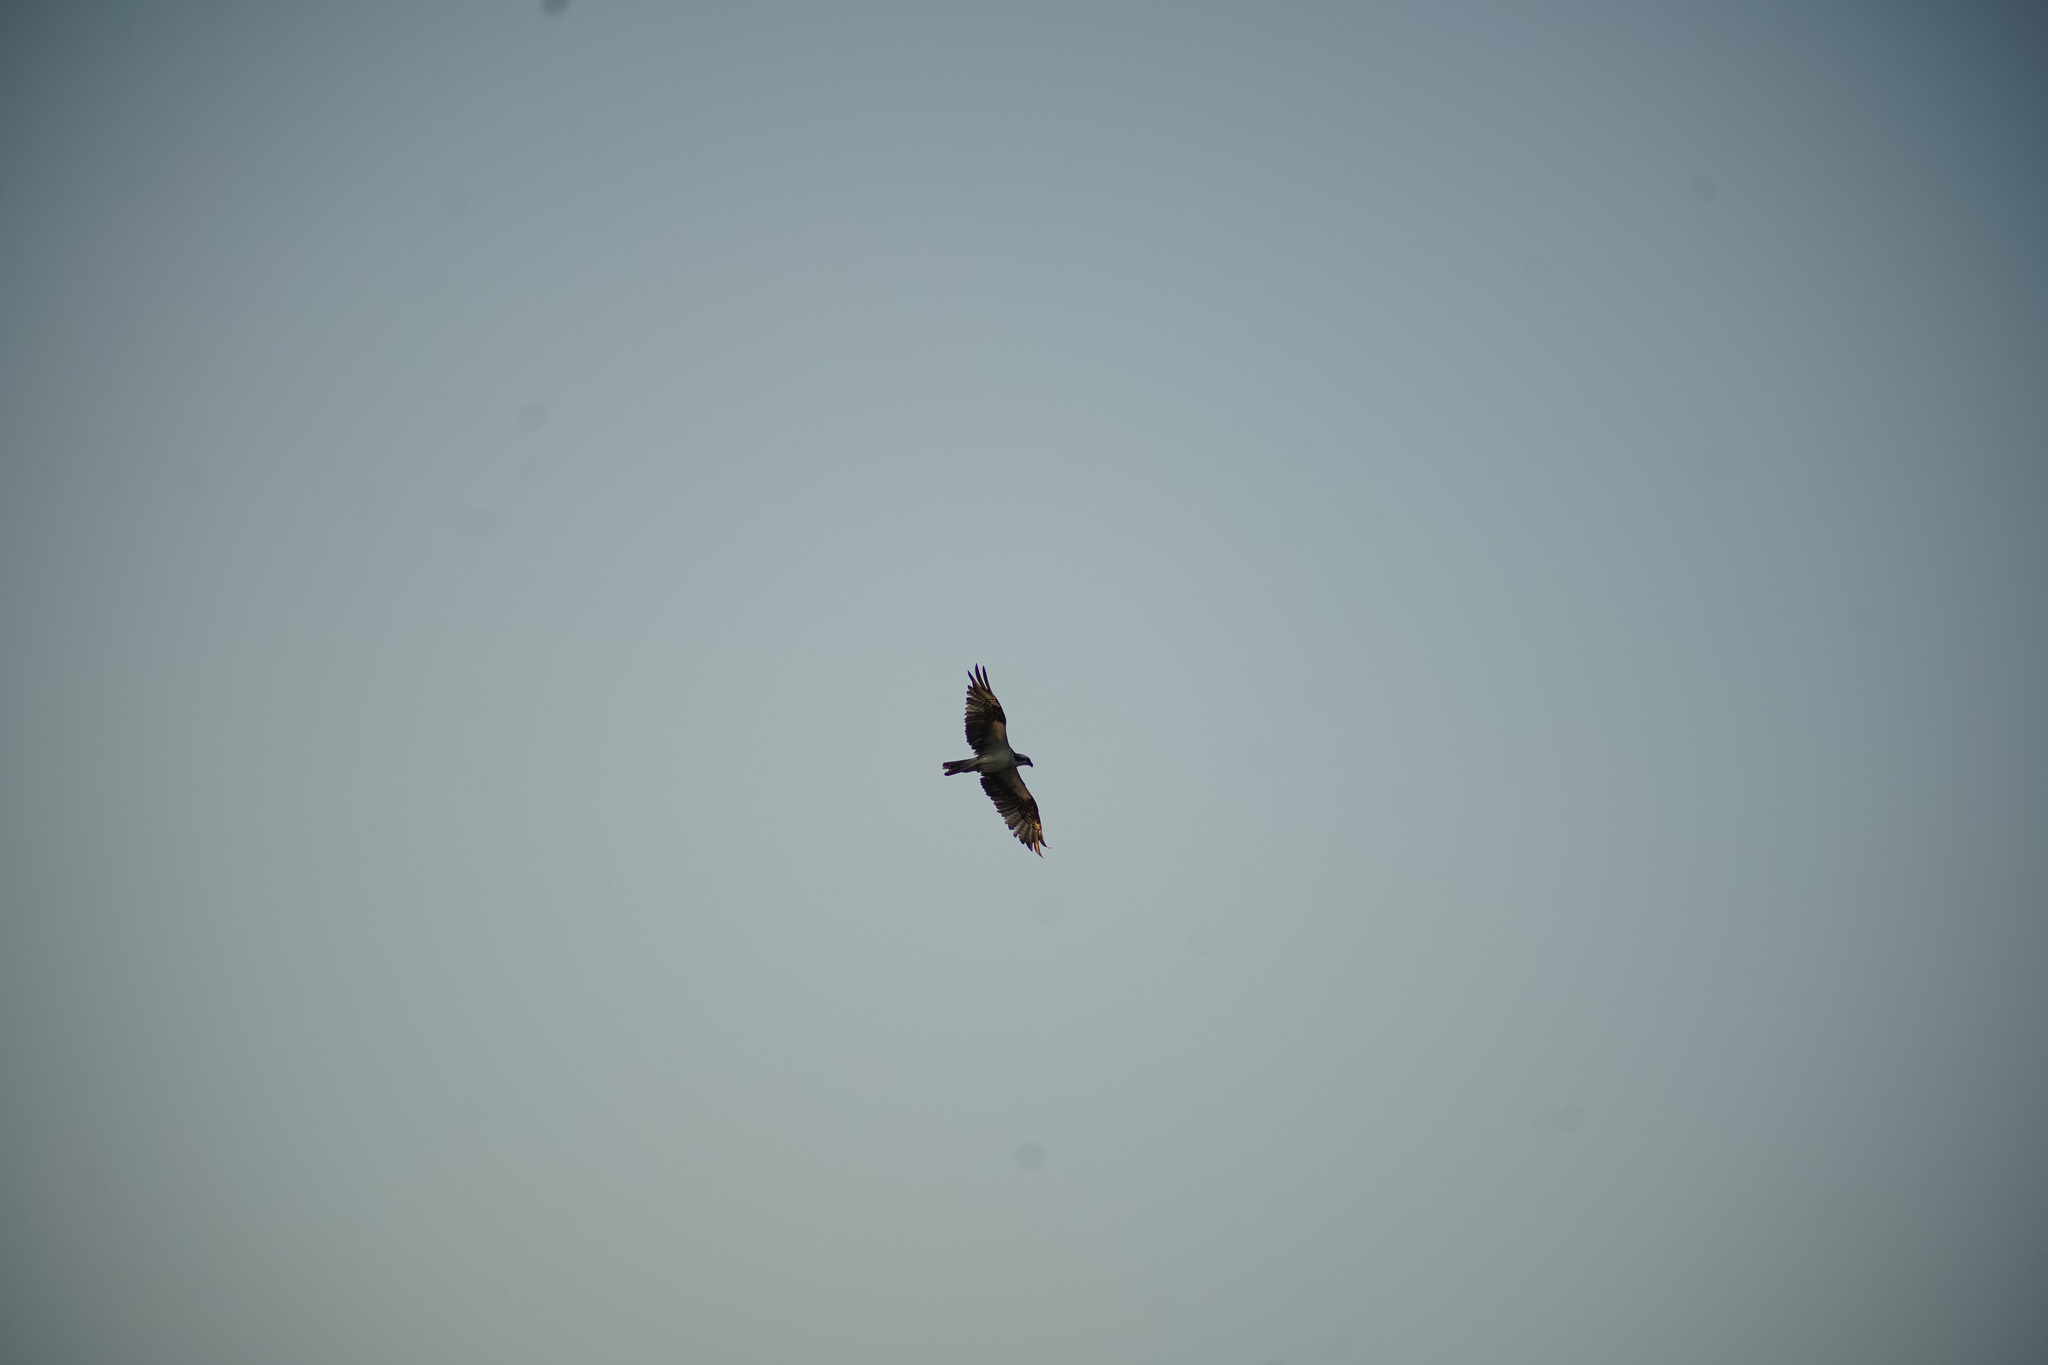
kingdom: Animalia
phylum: Chordata
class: Aves
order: Accipitriformes
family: Pandionidae
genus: Pandion
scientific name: Pandion haliaetus
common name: Osprey
